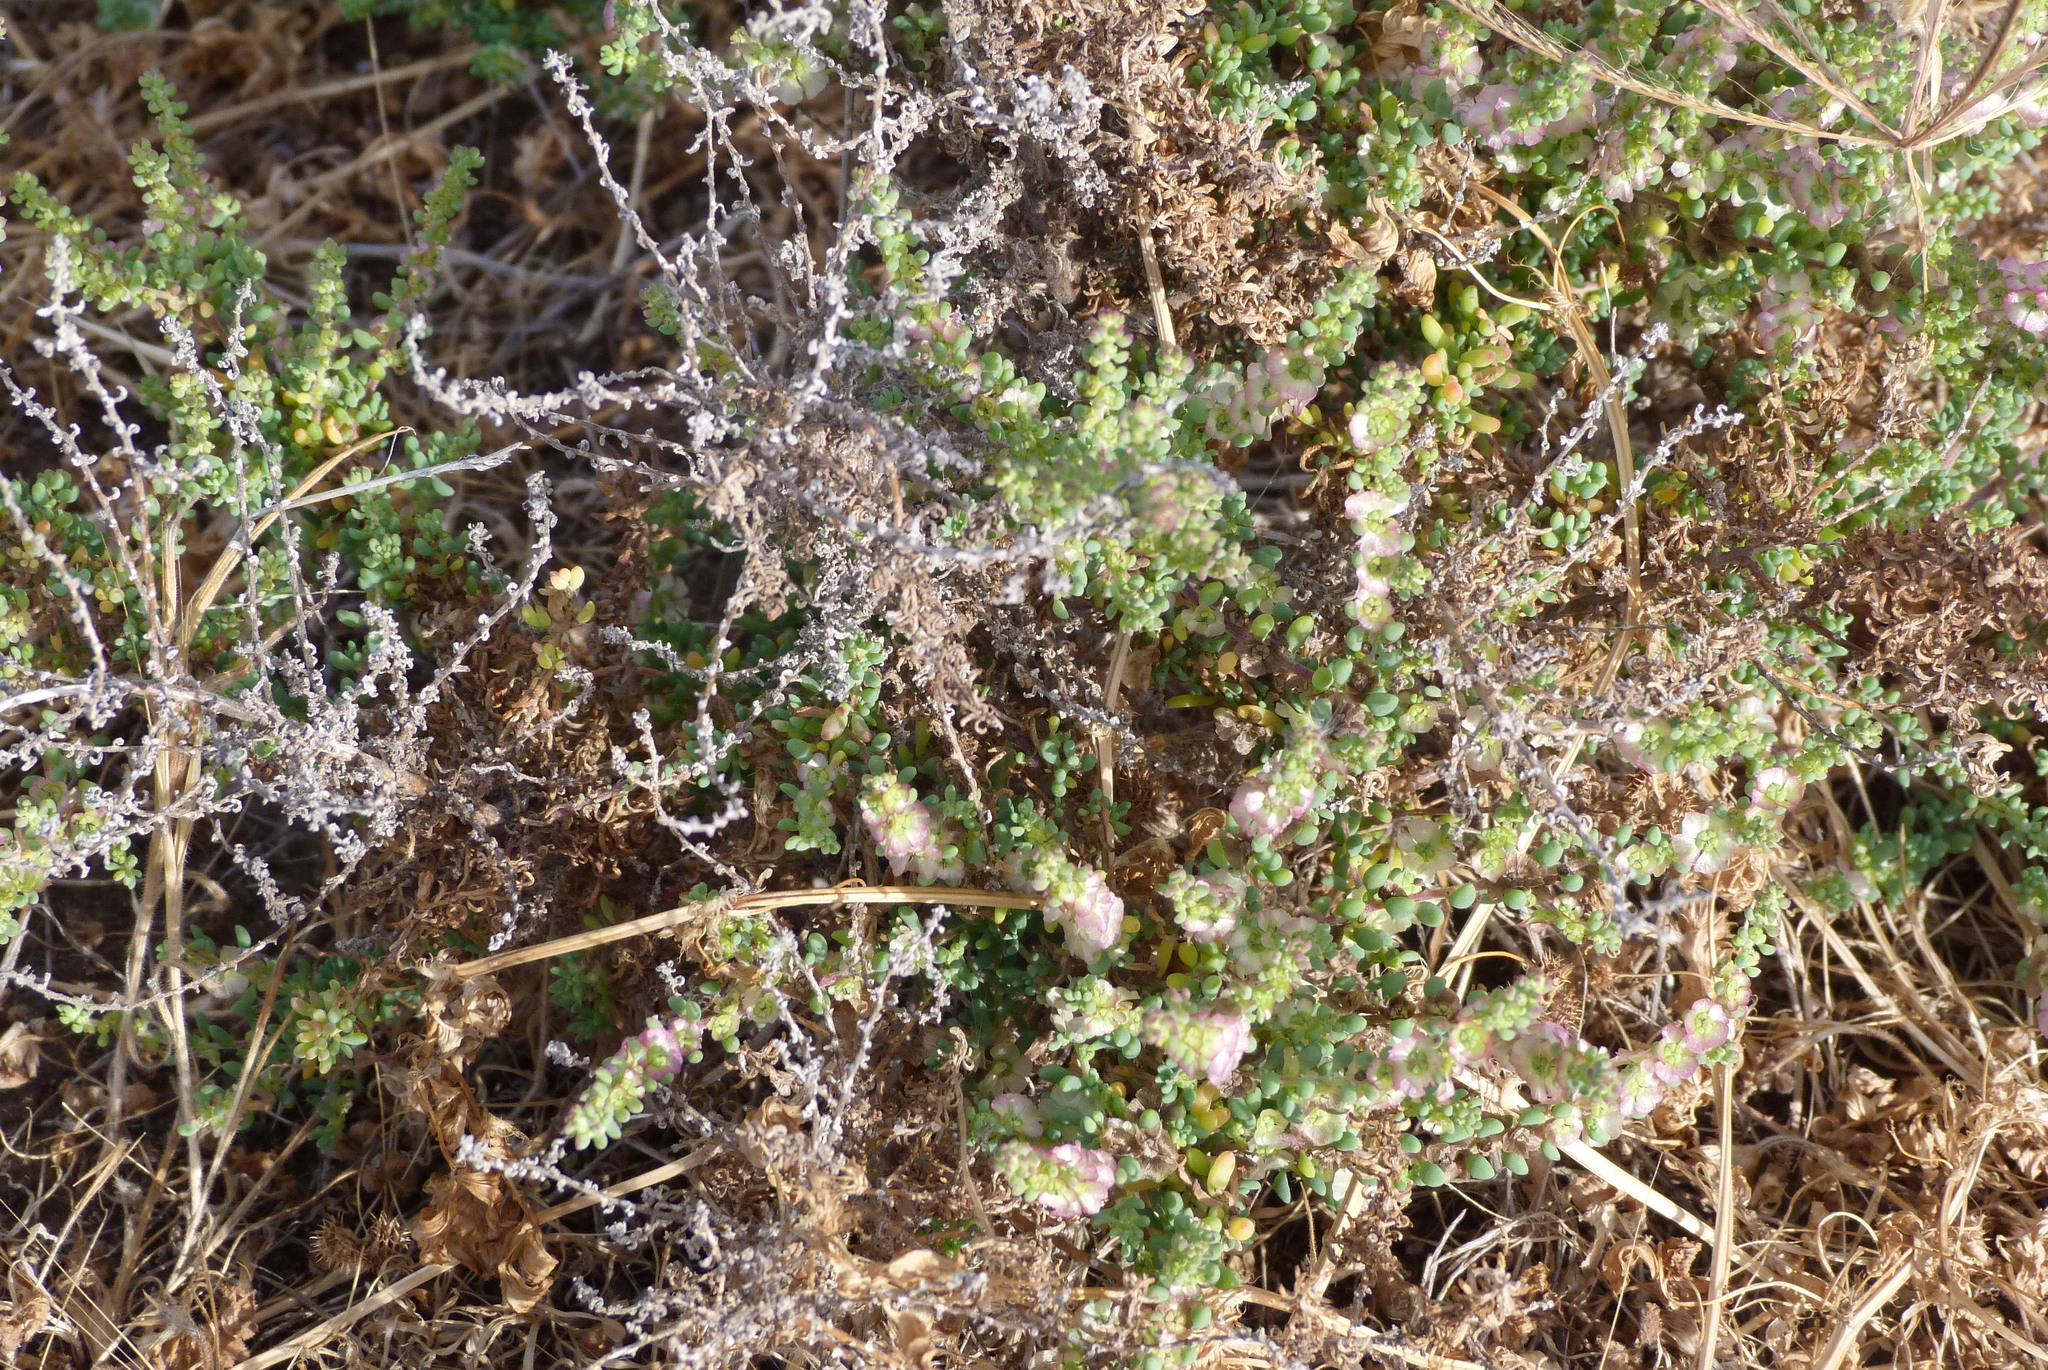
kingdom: Plantae
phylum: Tracheophyta
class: Magnoliopsida
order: Caryophyllales
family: Amaranthaceae
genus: Maireana
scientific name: Maireana brevifolia
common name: Eastern cottonbush
